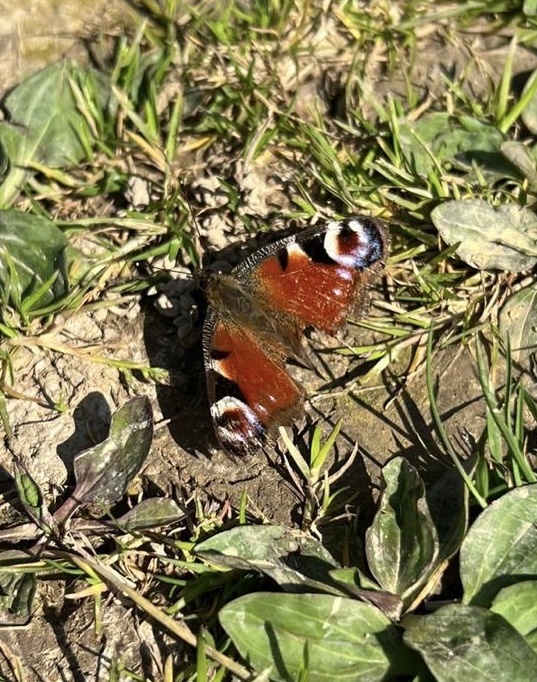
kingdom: Animalia
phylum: Arthropoda
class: Insecta
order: Lepidoptera
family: Nymphalidae
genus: Aglais
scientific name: Aglais io
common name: Peacock
